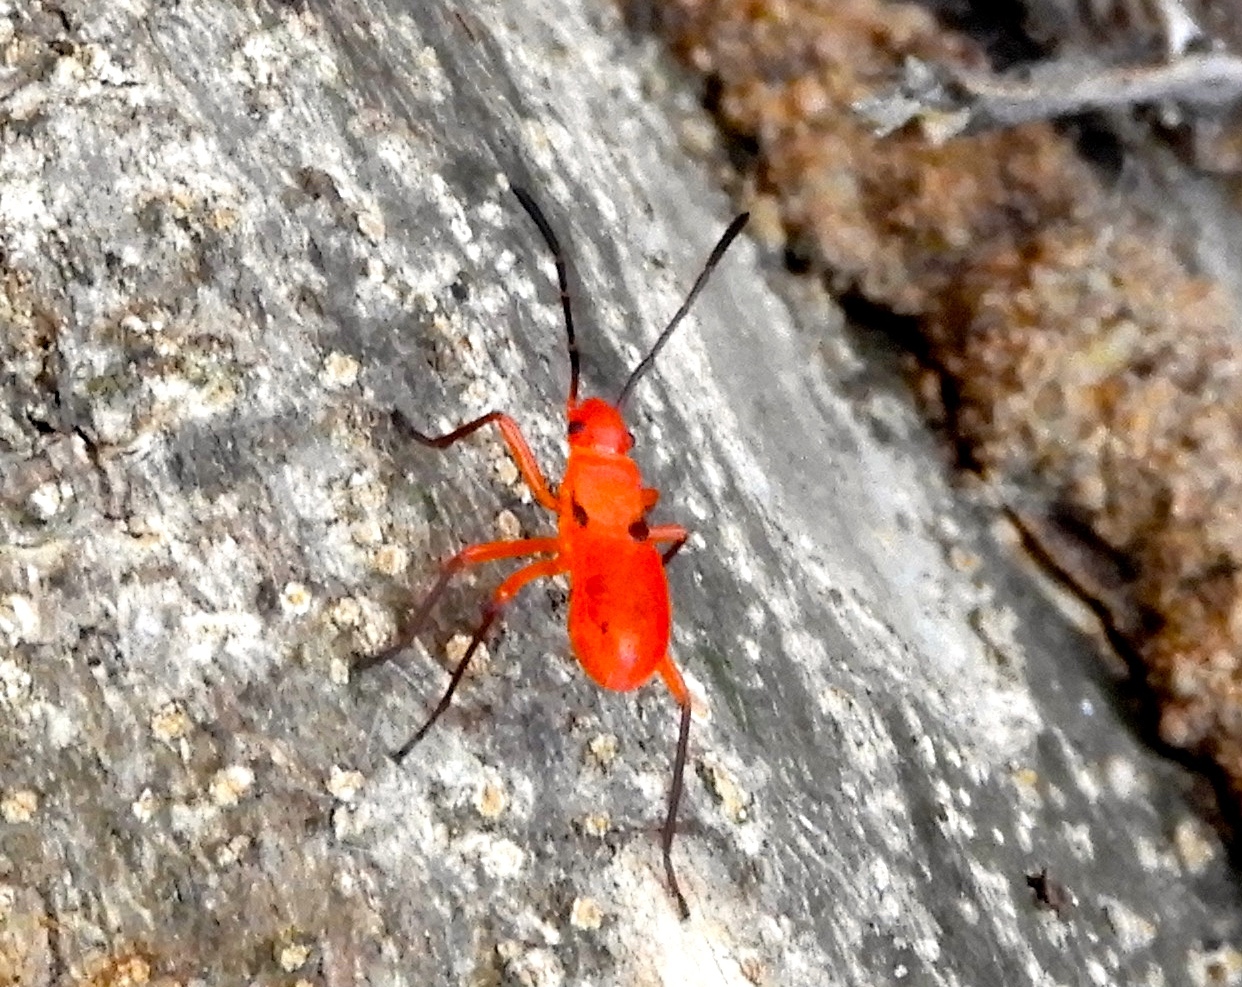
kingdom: Animalia
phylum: Arthropoda
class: Insecta
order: Hemiptera
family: Pyrrhocoridae
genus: Dysdercus
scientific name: Dysdercus
